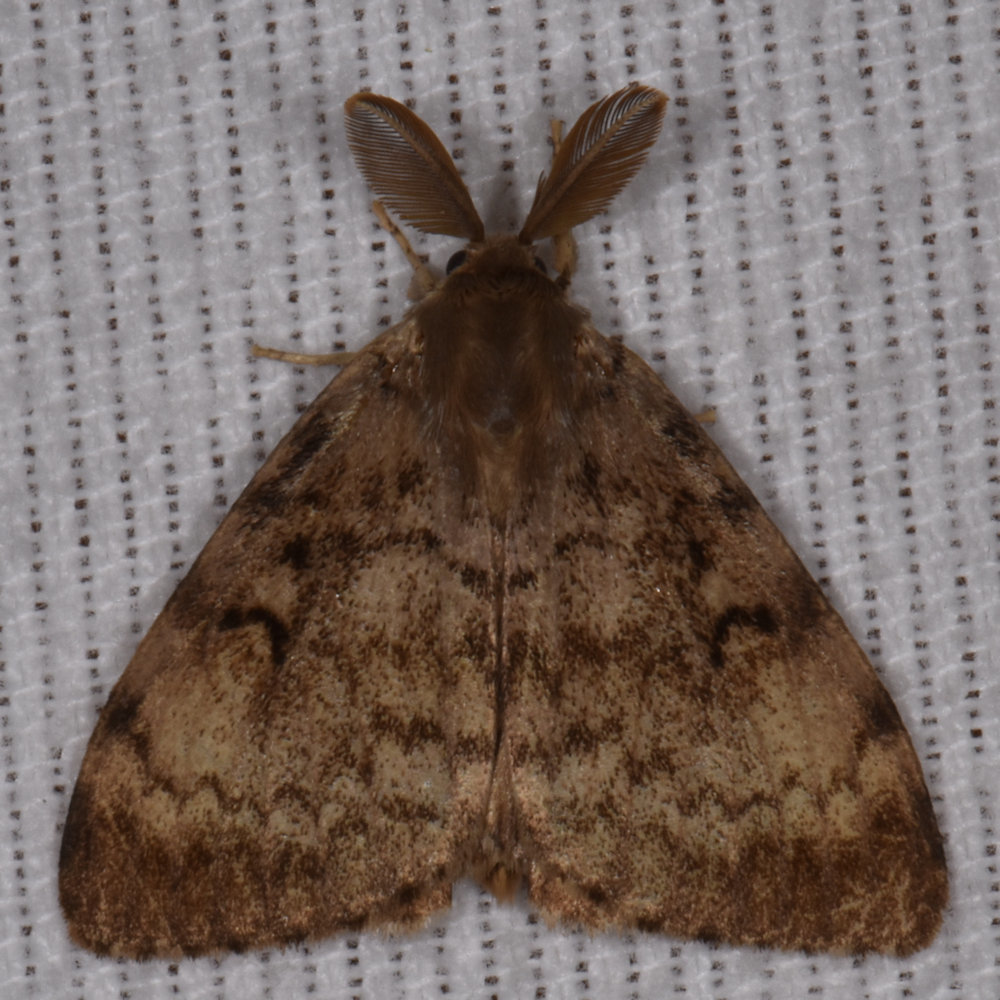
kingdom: Animalia
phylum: Arthropoda
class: Insecta
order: Lepidoptera
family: Erebidae
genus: Lymantria
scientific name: Lymantria dispar
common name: Gypsy moth
